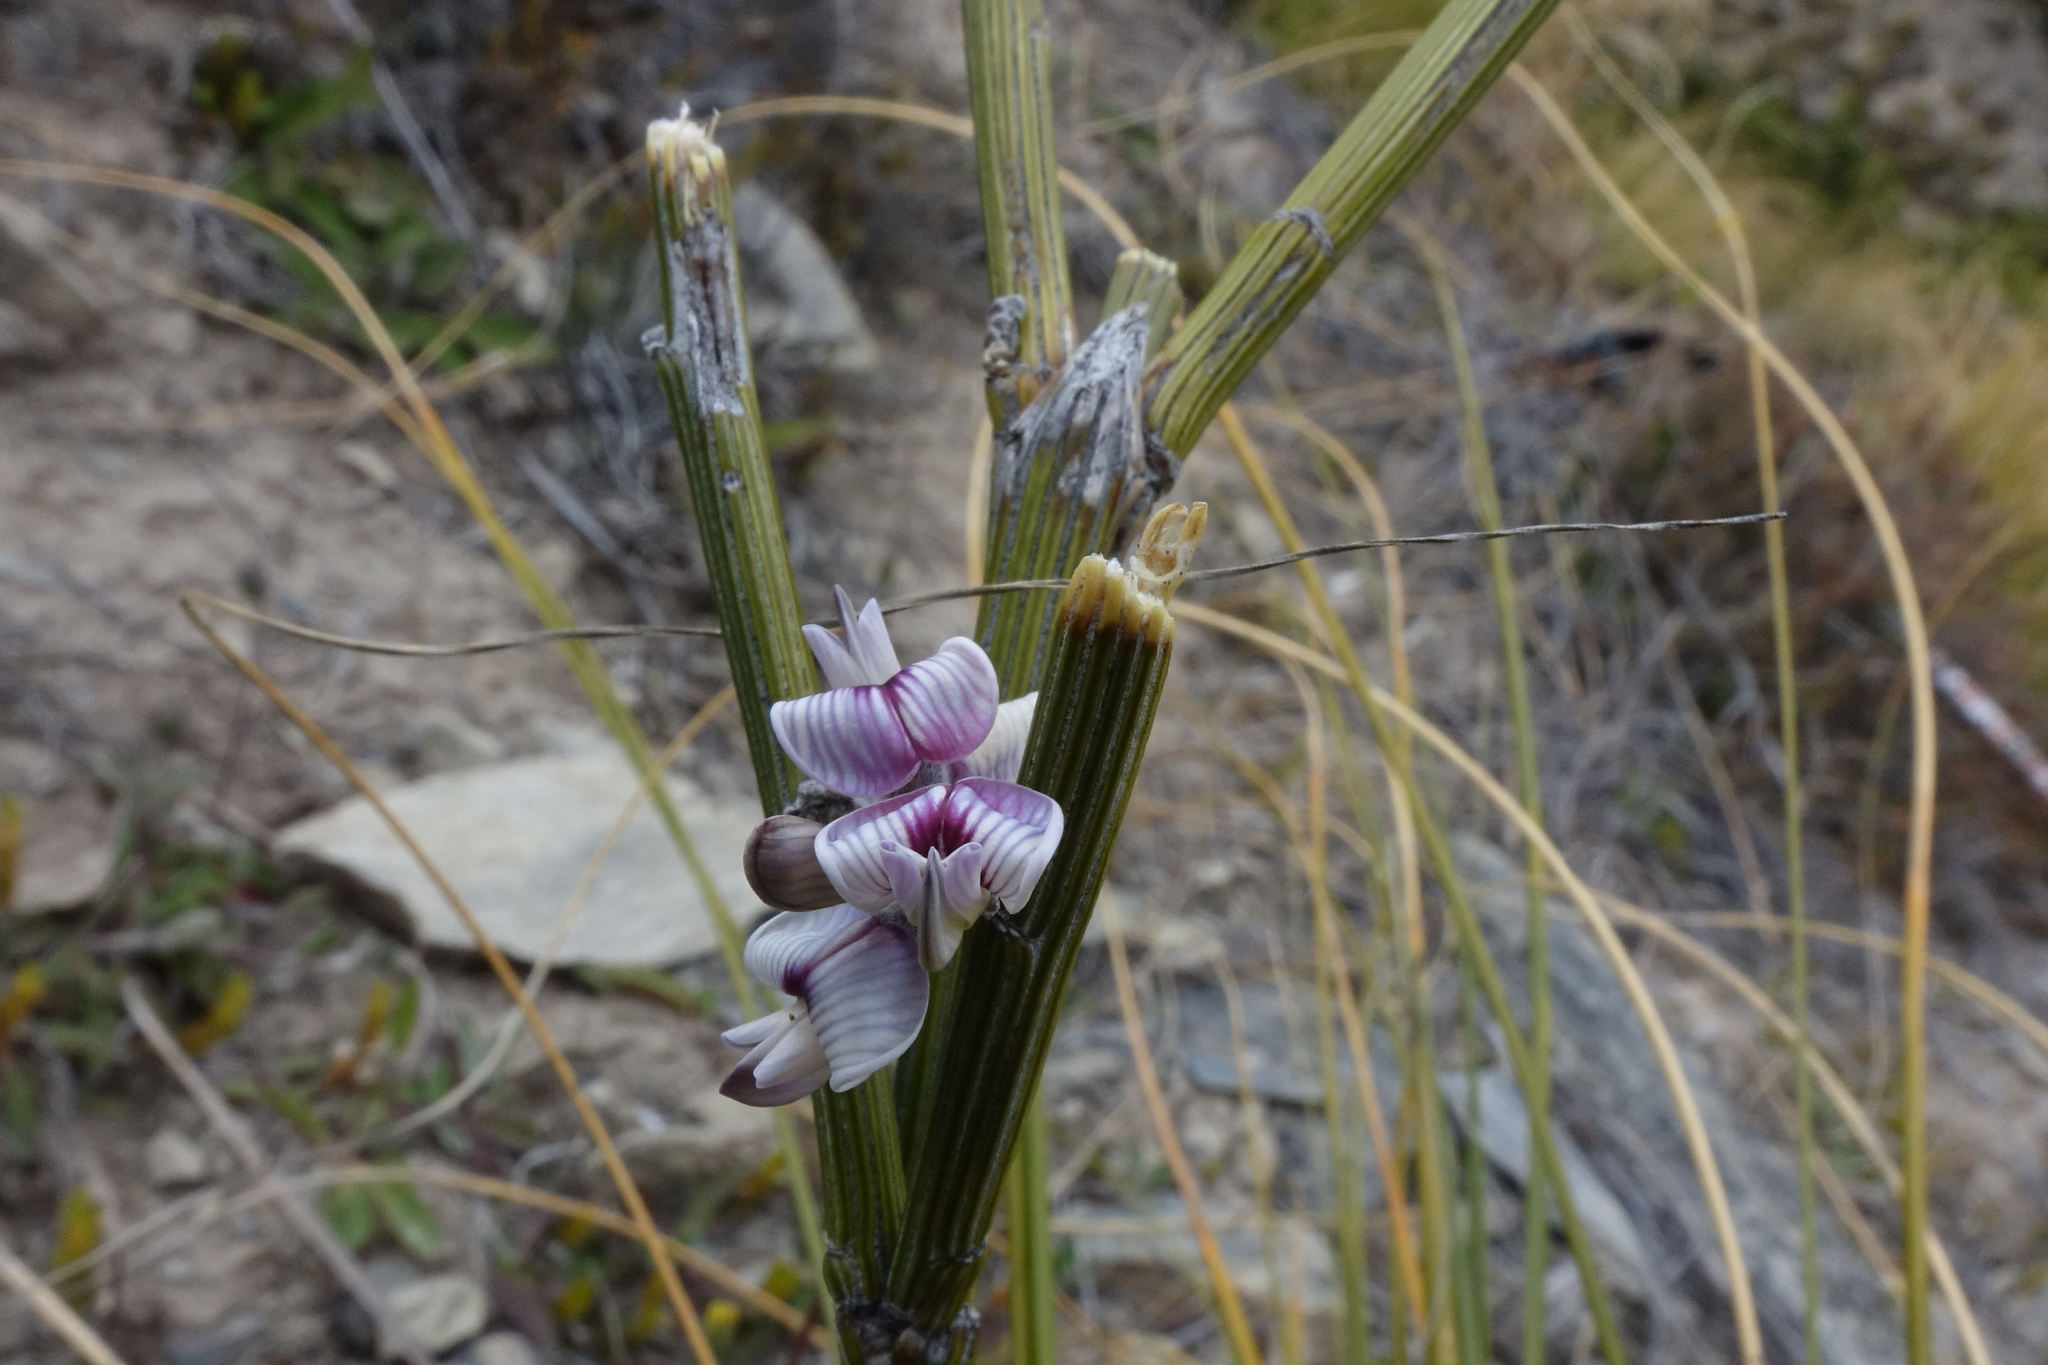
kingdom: Plantae
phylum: Tracheophyta
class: Magnoliopsida
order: Fabales
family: Fabaceae
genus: Carmichaelia
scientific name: Carmichaelia crassicaulis
